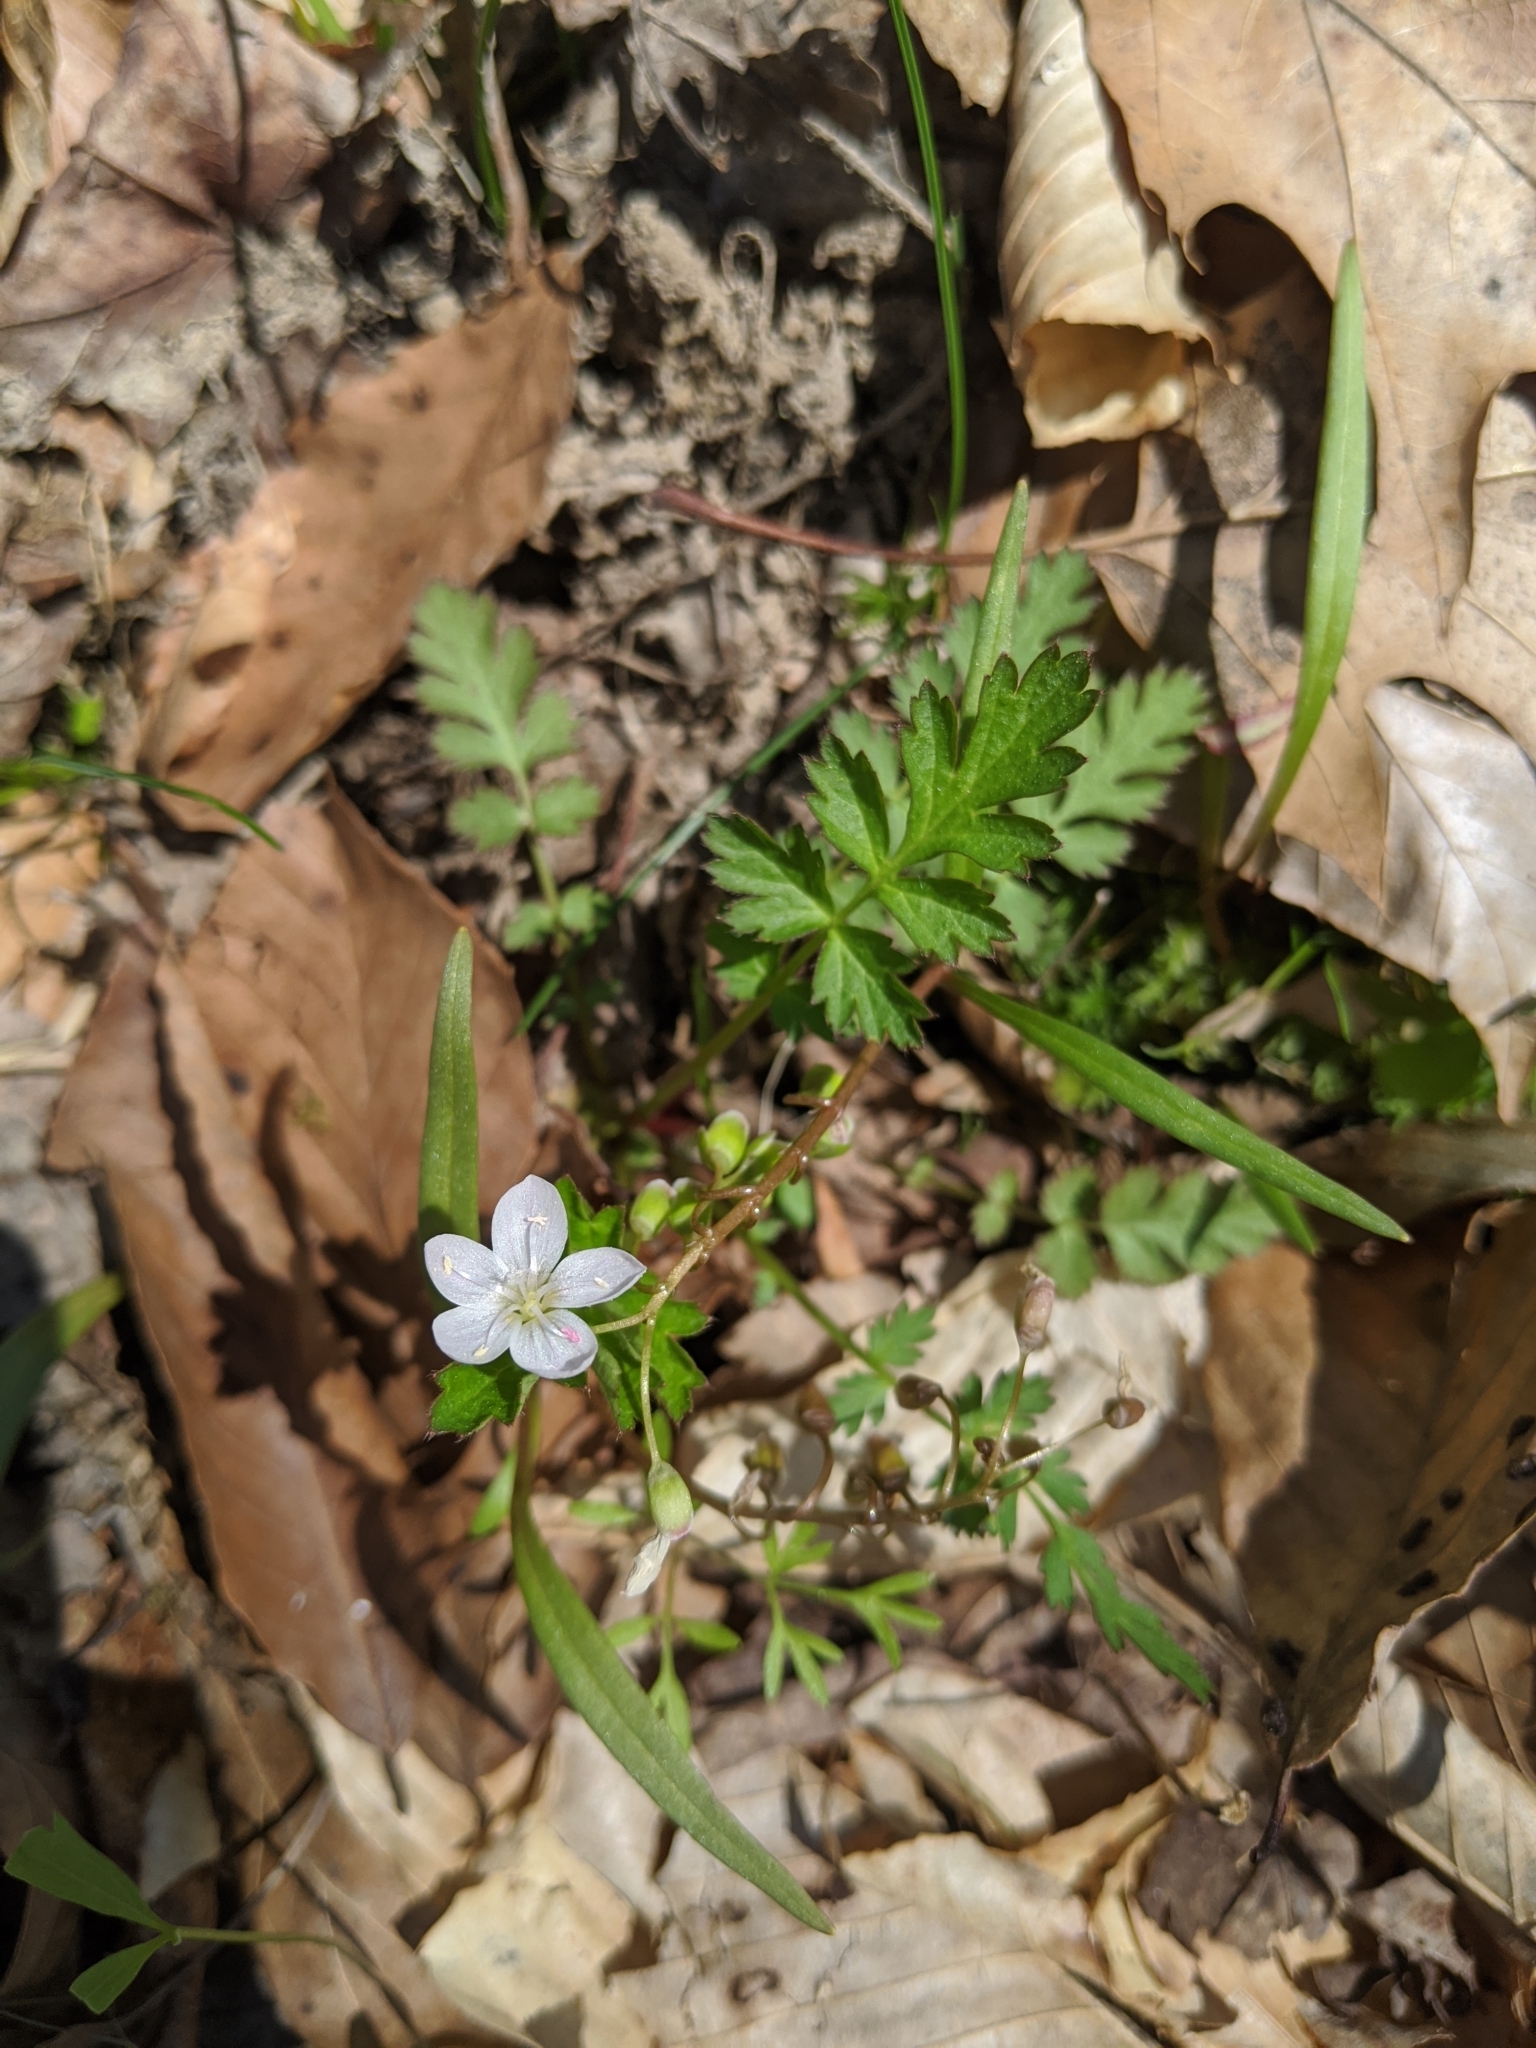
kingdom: Plantae
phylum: Tracheophyta
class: Magnoliopsida
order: Caryophyllales
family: Montiaceae
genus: Claytonia
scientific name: Claytonia virginica
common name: Virginia springbeauty
